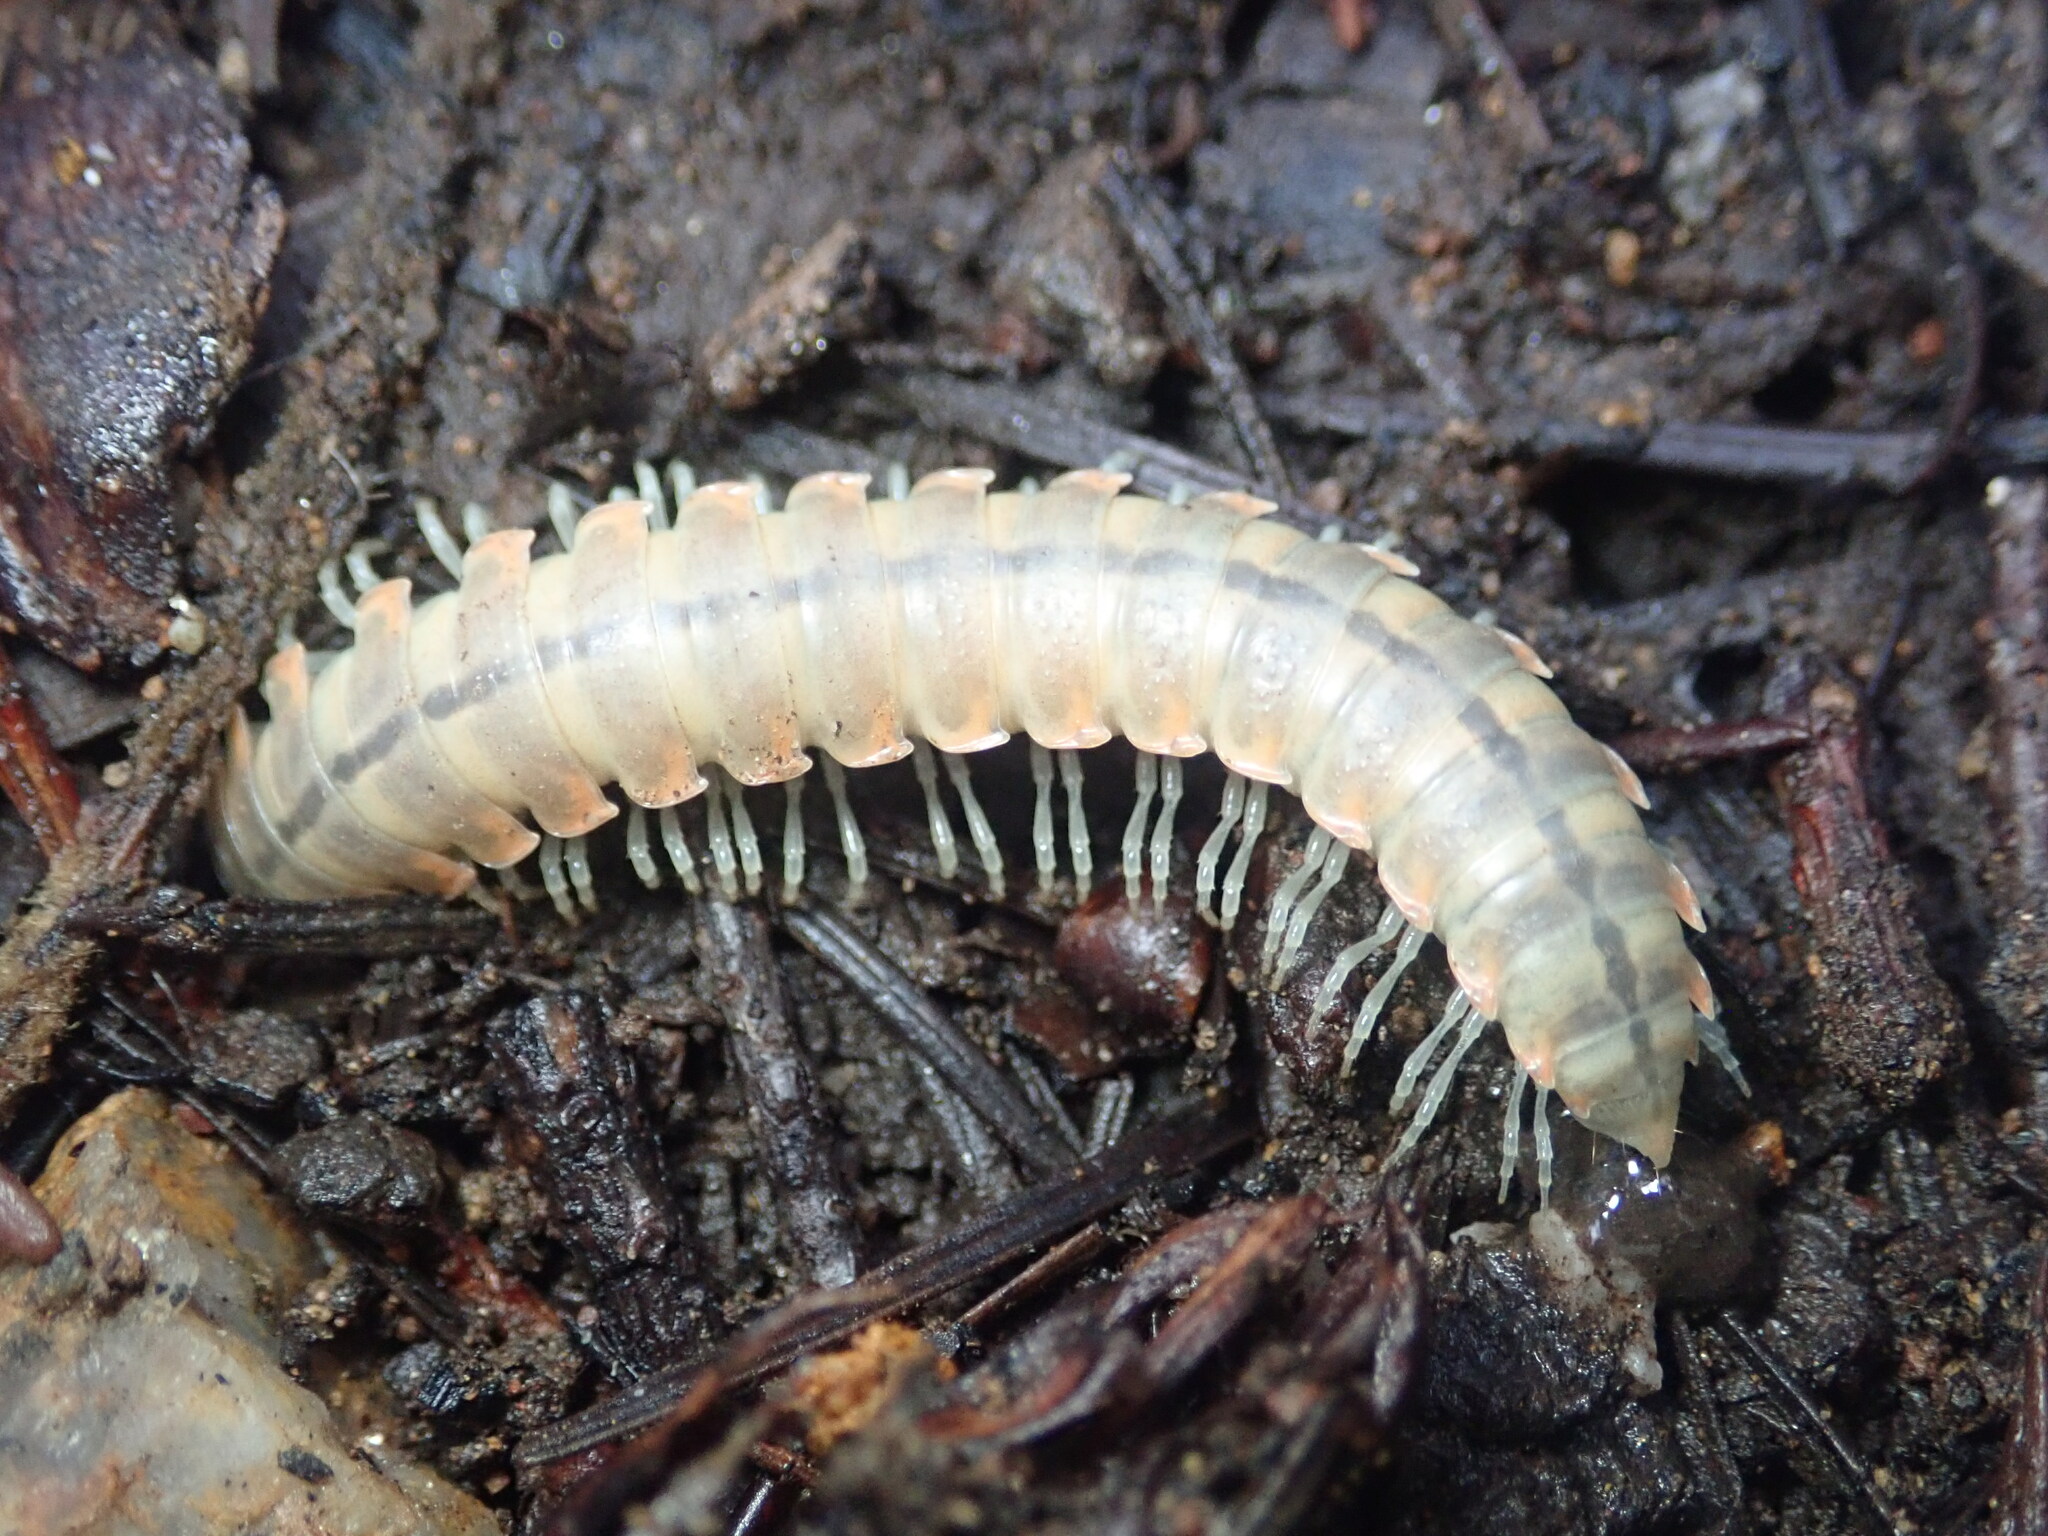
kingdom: Animalia
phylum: Arthropoda
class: Diplopoda
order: Polydesmida
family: Xystodesmidae
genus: Xystocheir
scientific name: Xystocheir dissecta
